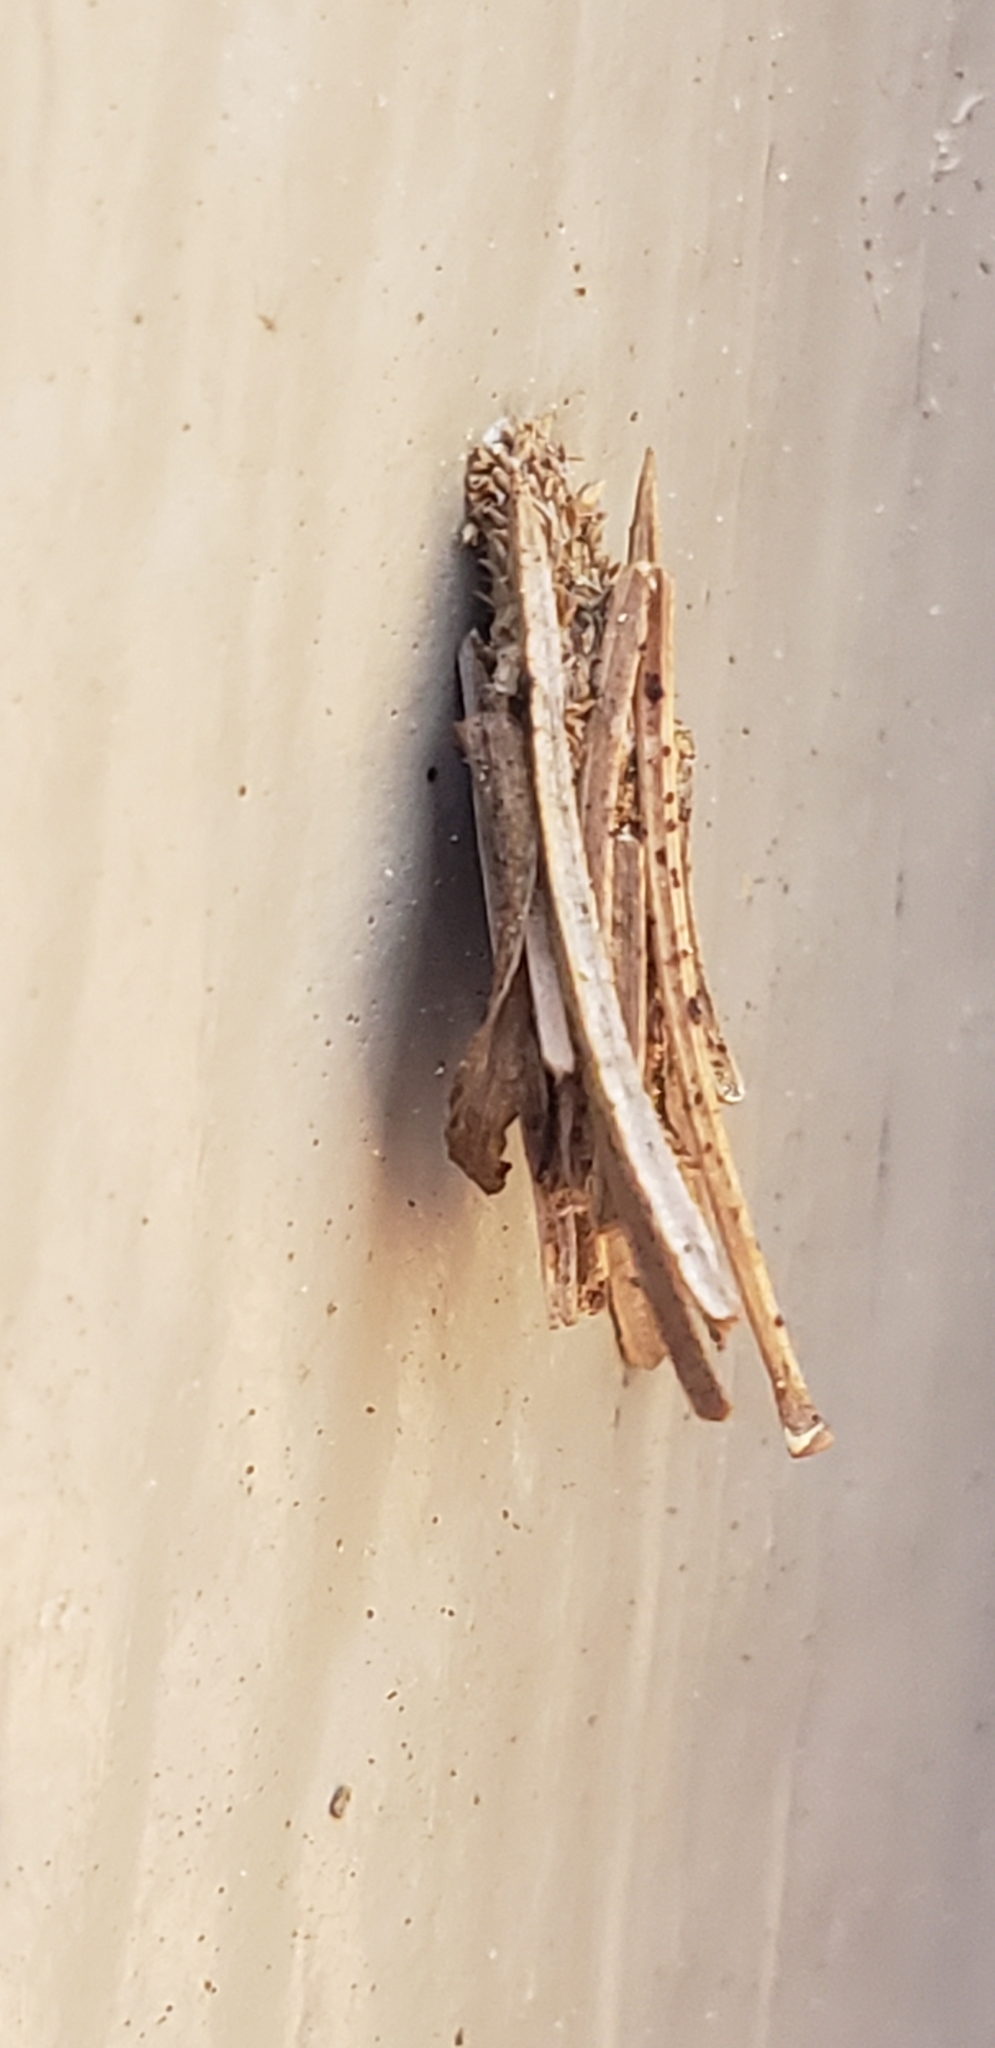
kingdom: Animalia
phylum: Arthropoda
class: Insecta
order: Lepidoptera
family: Psychidae
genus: Psyche
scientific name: Psyche casta
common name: Common sweep
